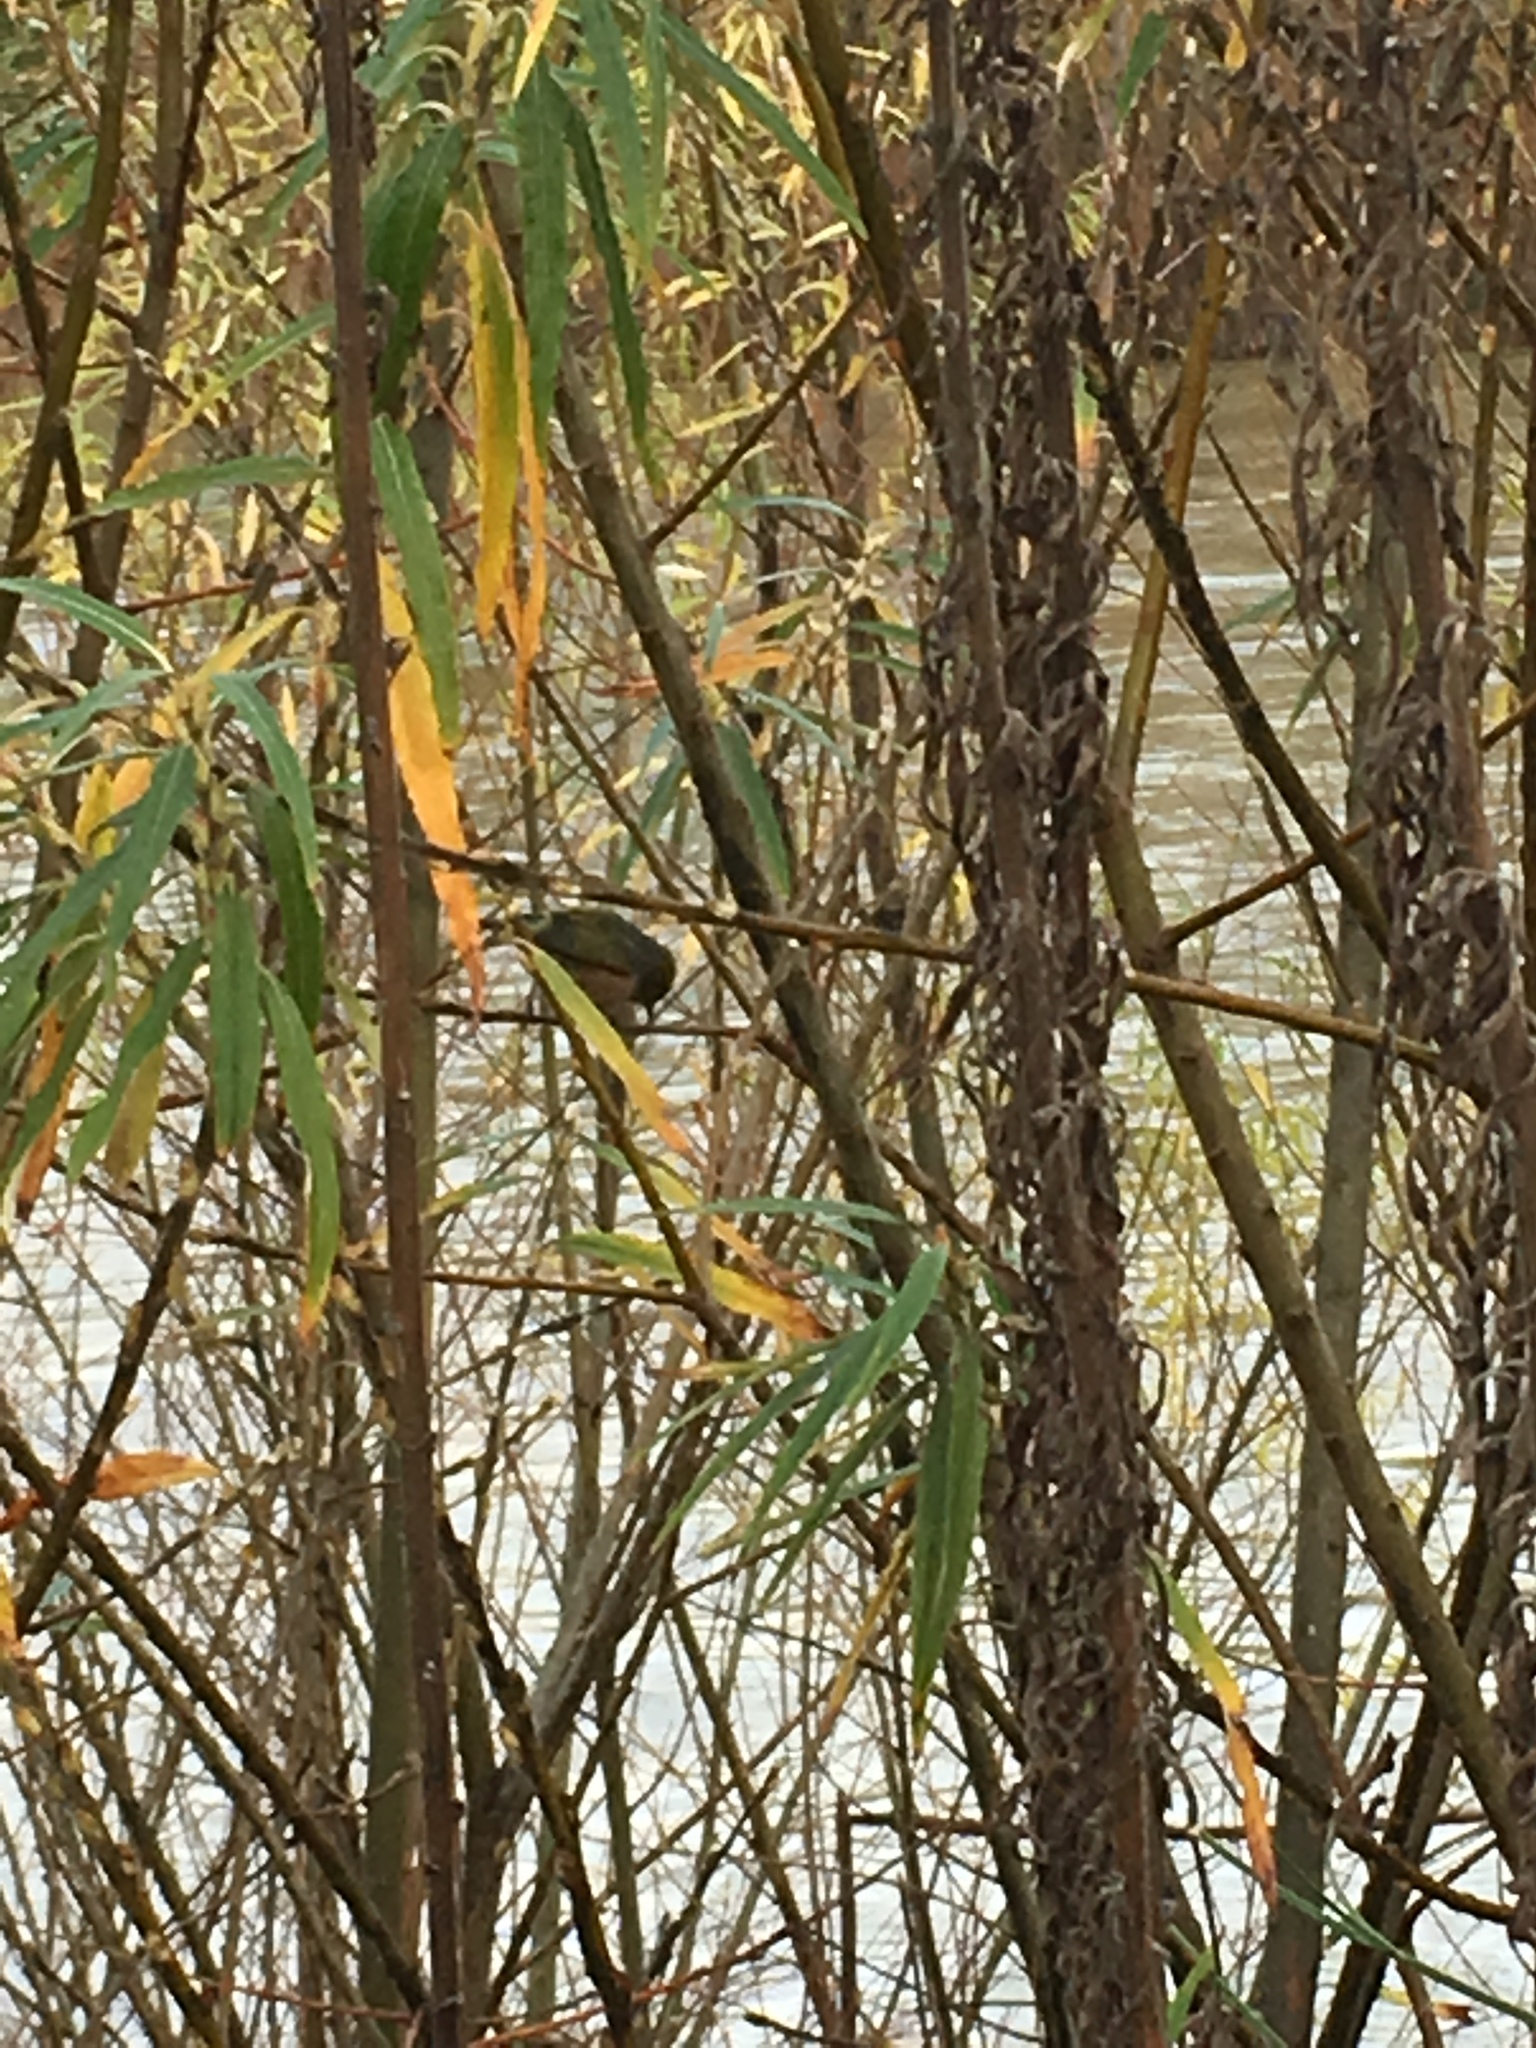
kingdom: Animalia
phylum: Chordata
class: Aves
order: Passeriformes
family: Zosteropidae
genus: Zosterops
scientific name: Zosterops lateralis
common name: Silvereye
